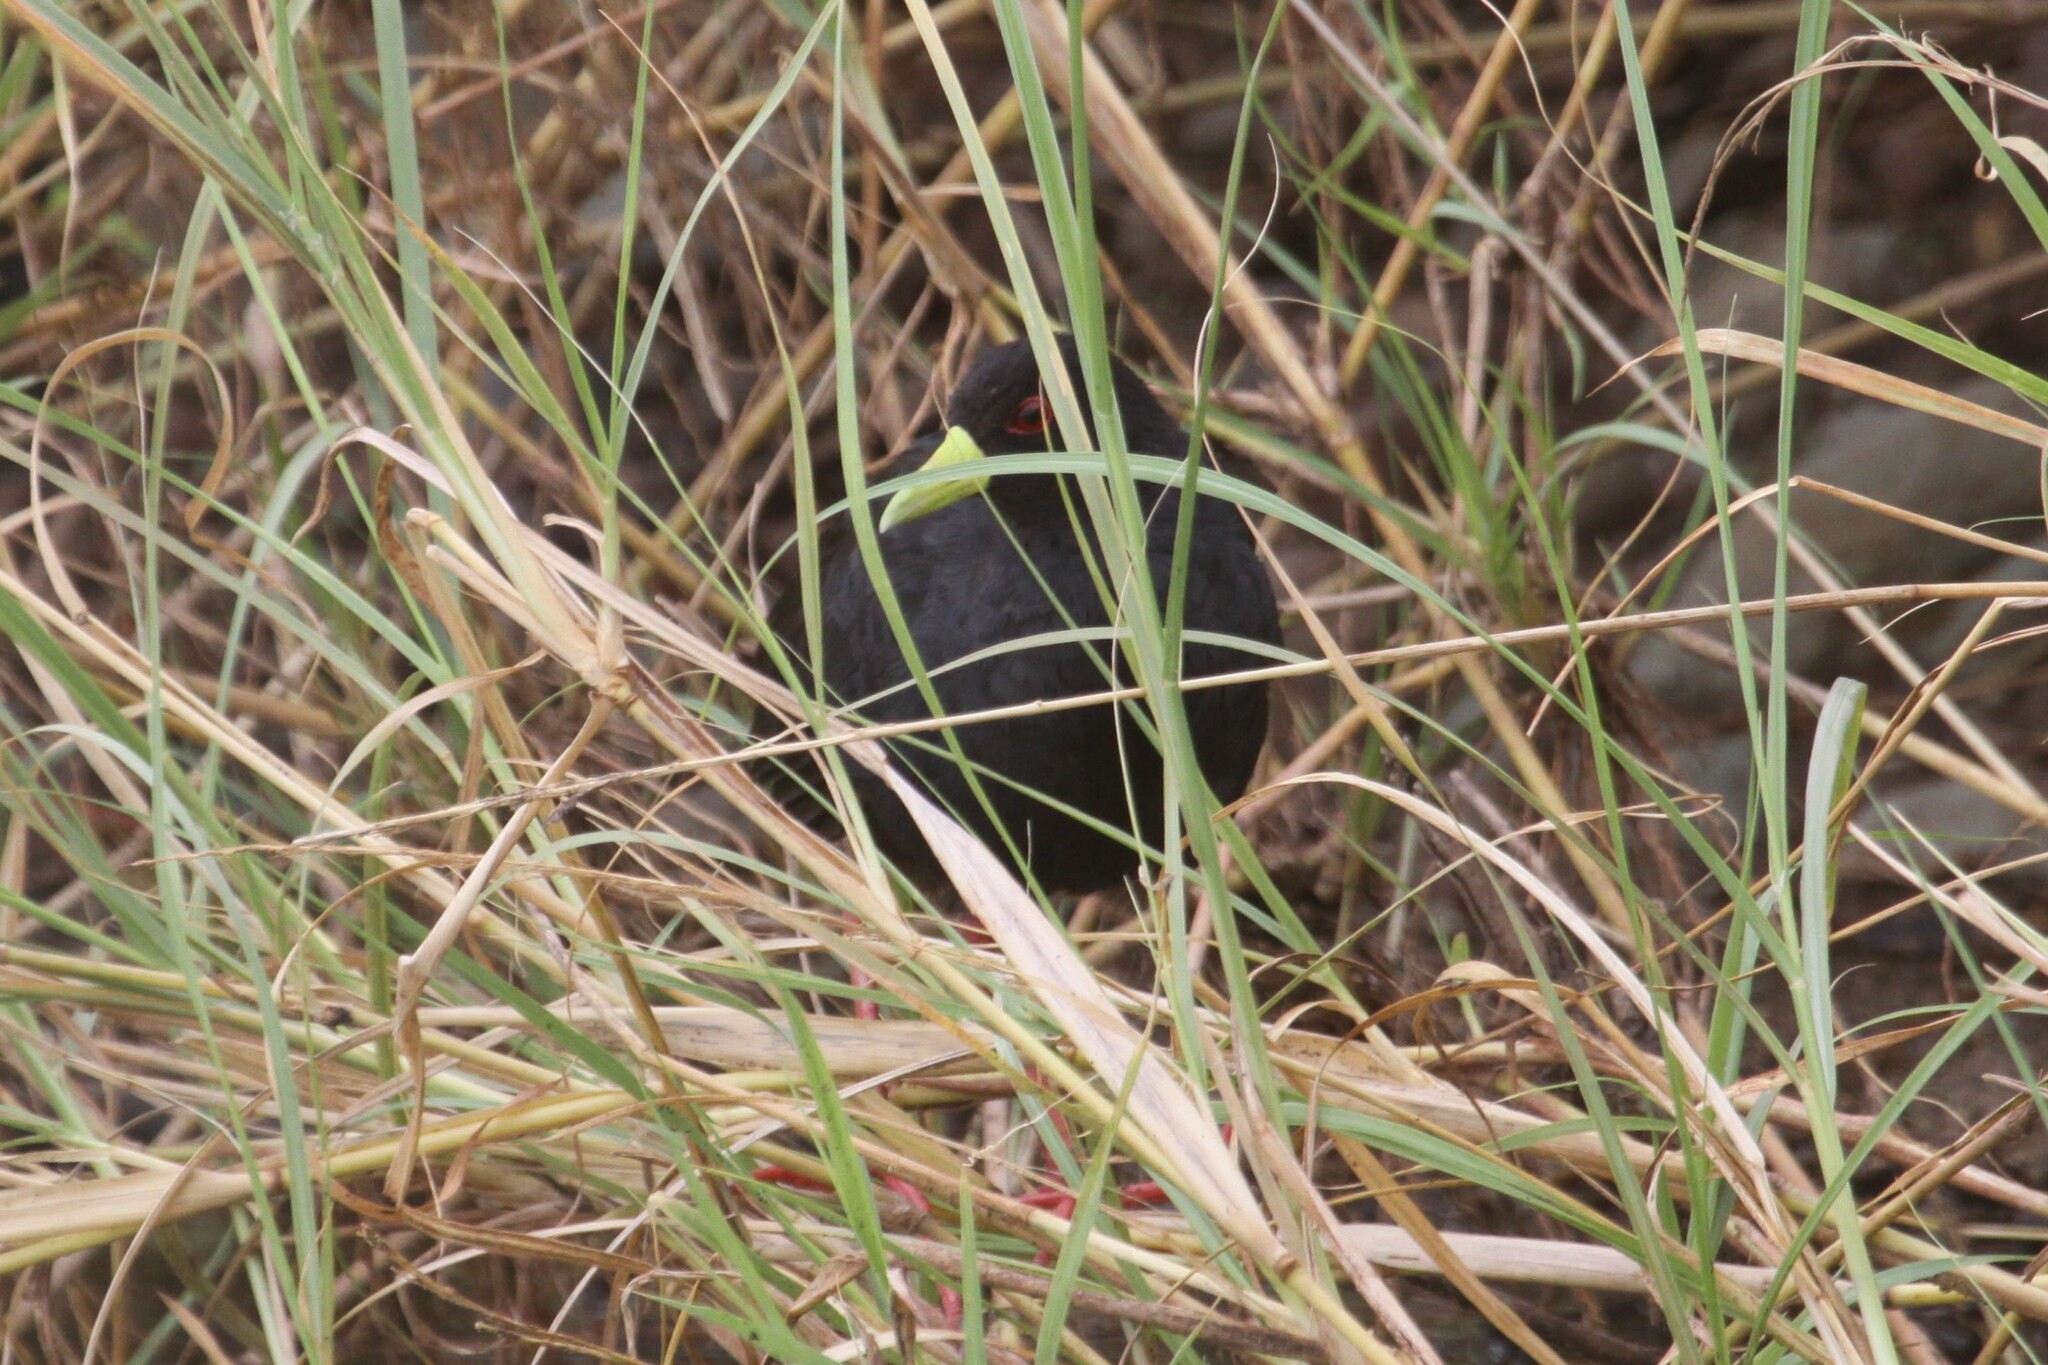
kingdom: Animalia
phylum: Chordata
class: Aves
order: Gruiformes
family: Rallidae
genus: Amaurornis
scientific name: Amaurornis flavirostra
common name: Black crake
